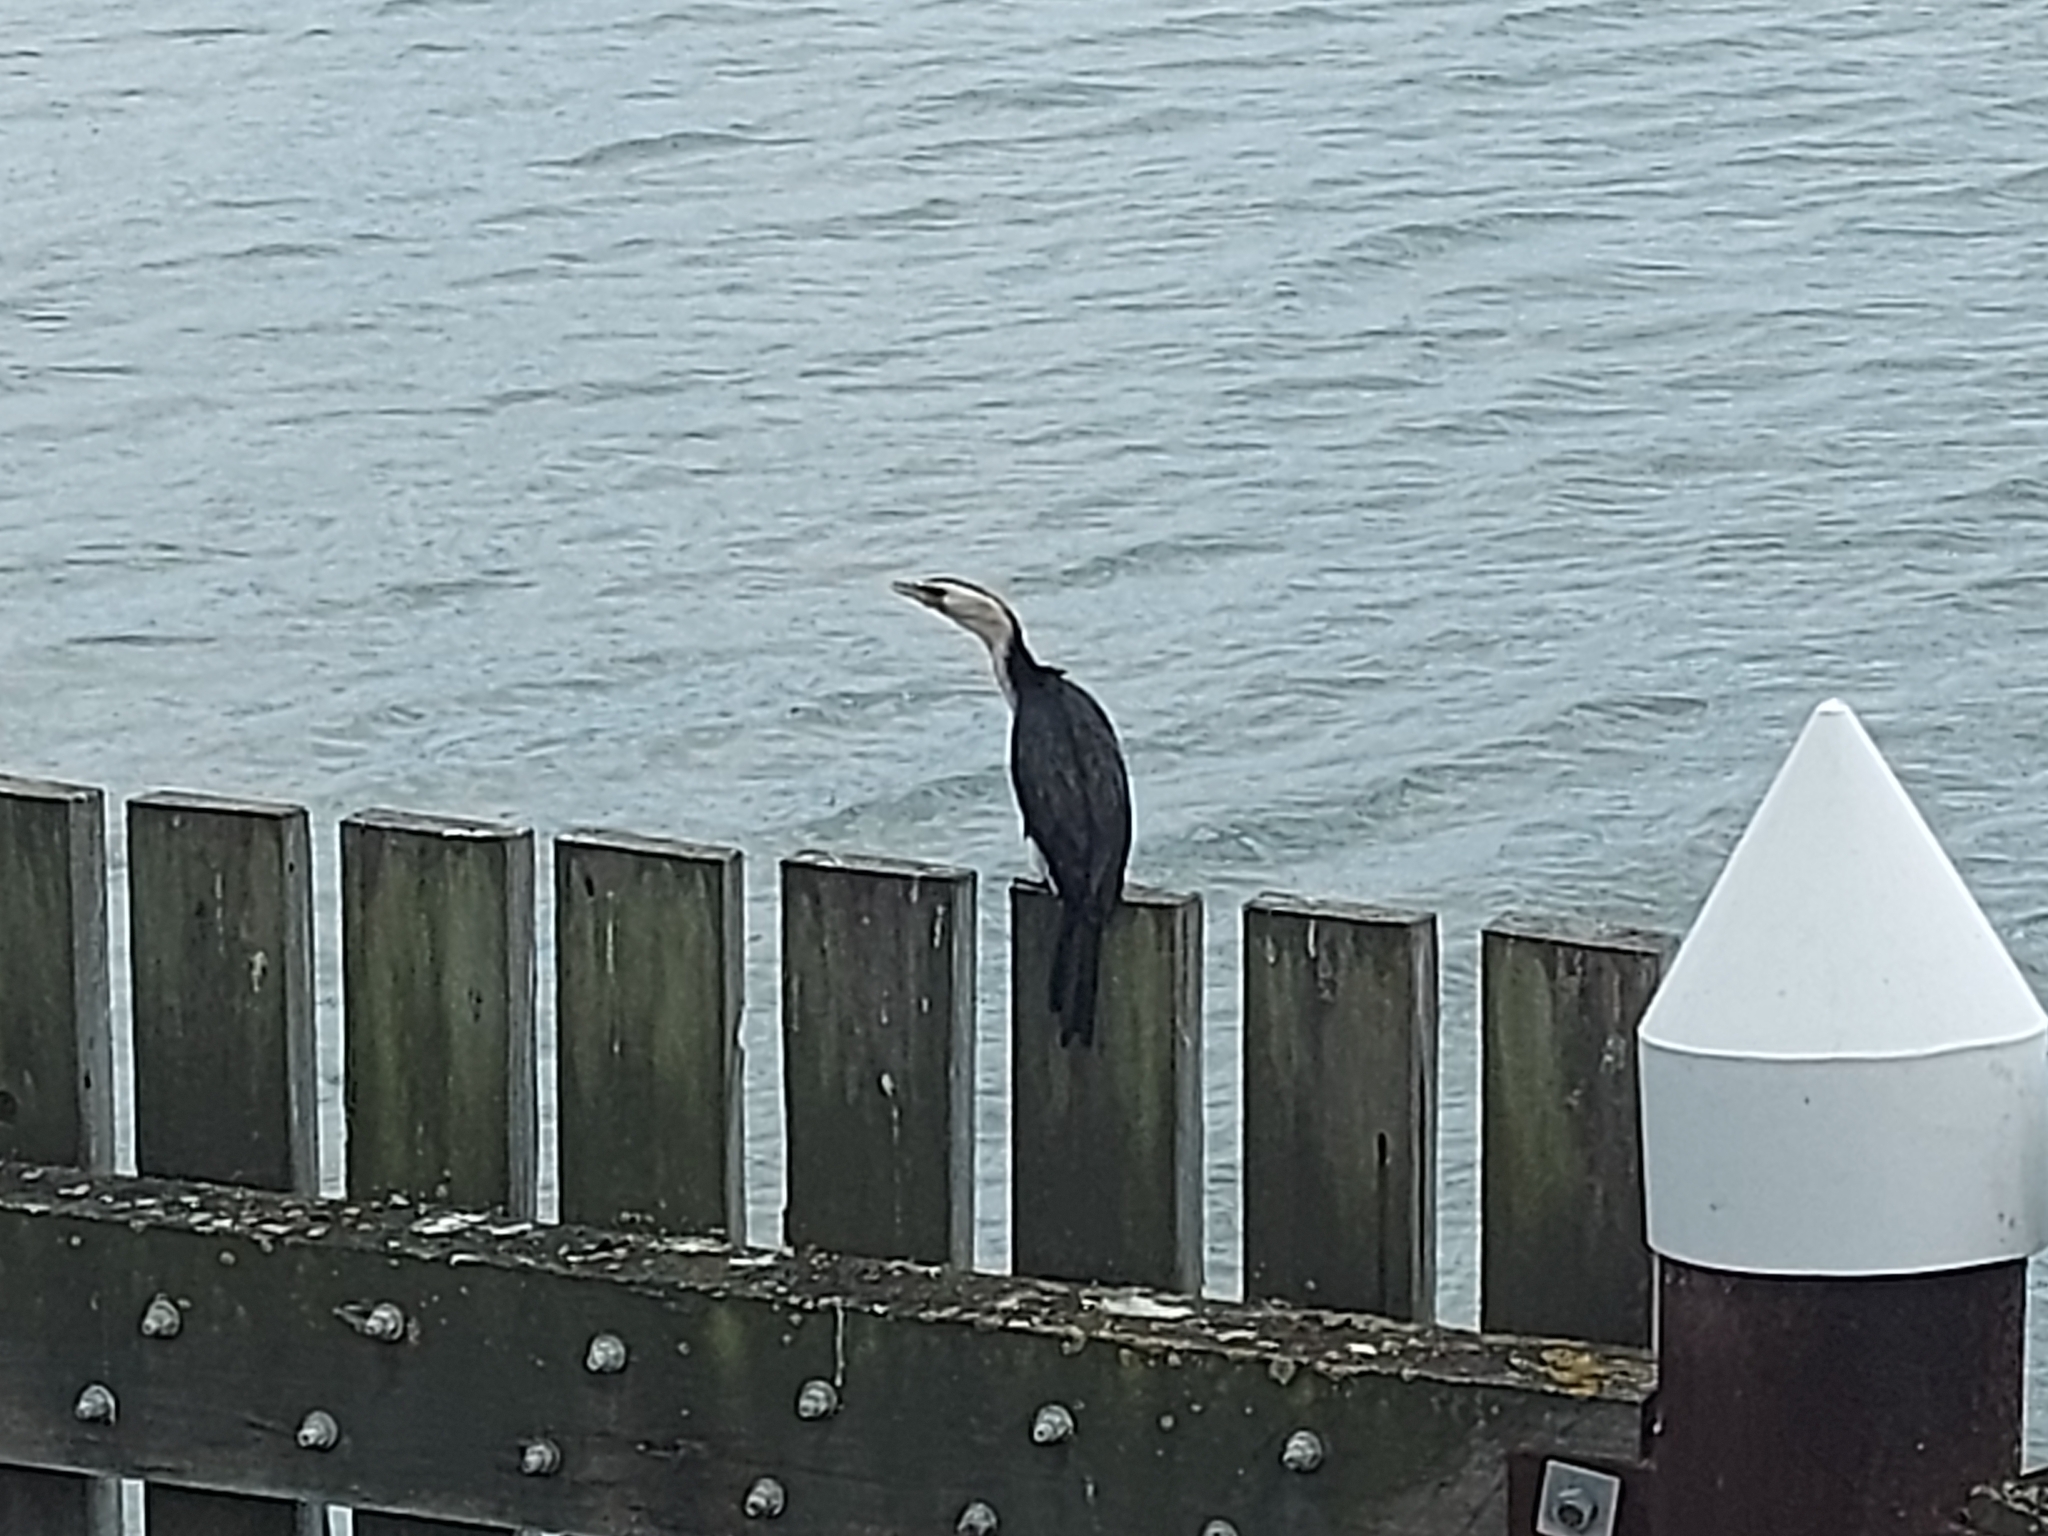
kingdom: Animalia
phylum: Chordata
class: Aves
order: Suliformes
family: Phalacrocoracidae
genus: Microcarbo
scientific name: Microcarbo melanoleucos
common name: Little pied cormorant
